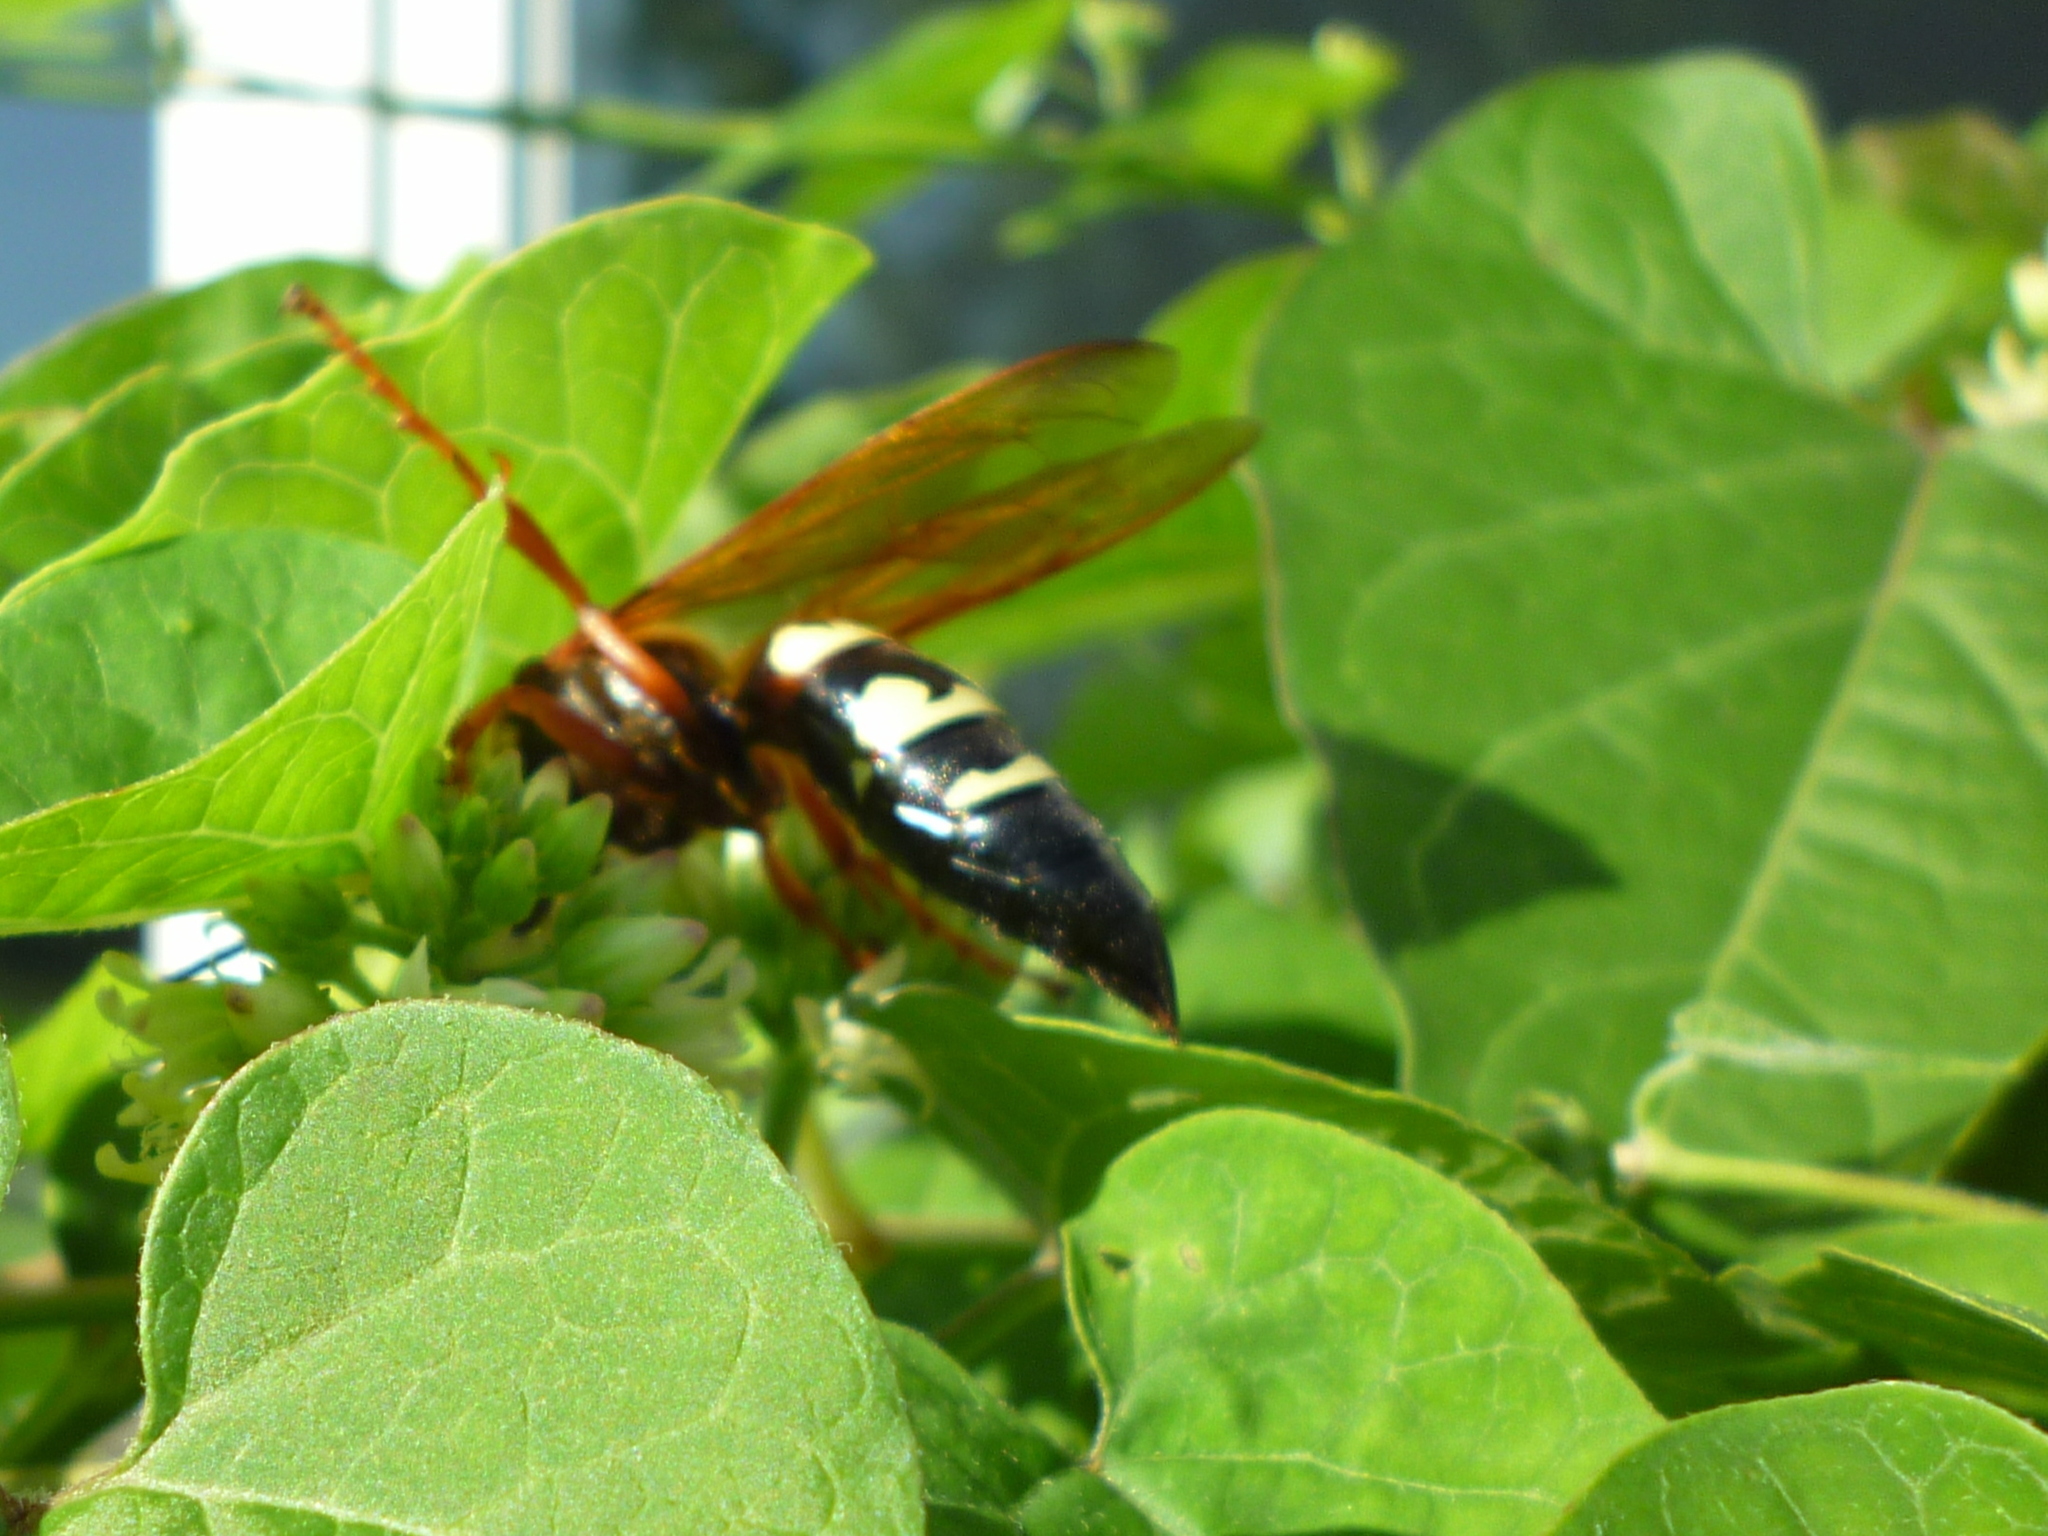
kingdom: Animalia
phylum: Arthropoda
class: Insecta
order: Hymenoptera
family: Crabronidae
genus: Sphecius
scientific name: Sphecius speciosus
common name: Cicada killer
